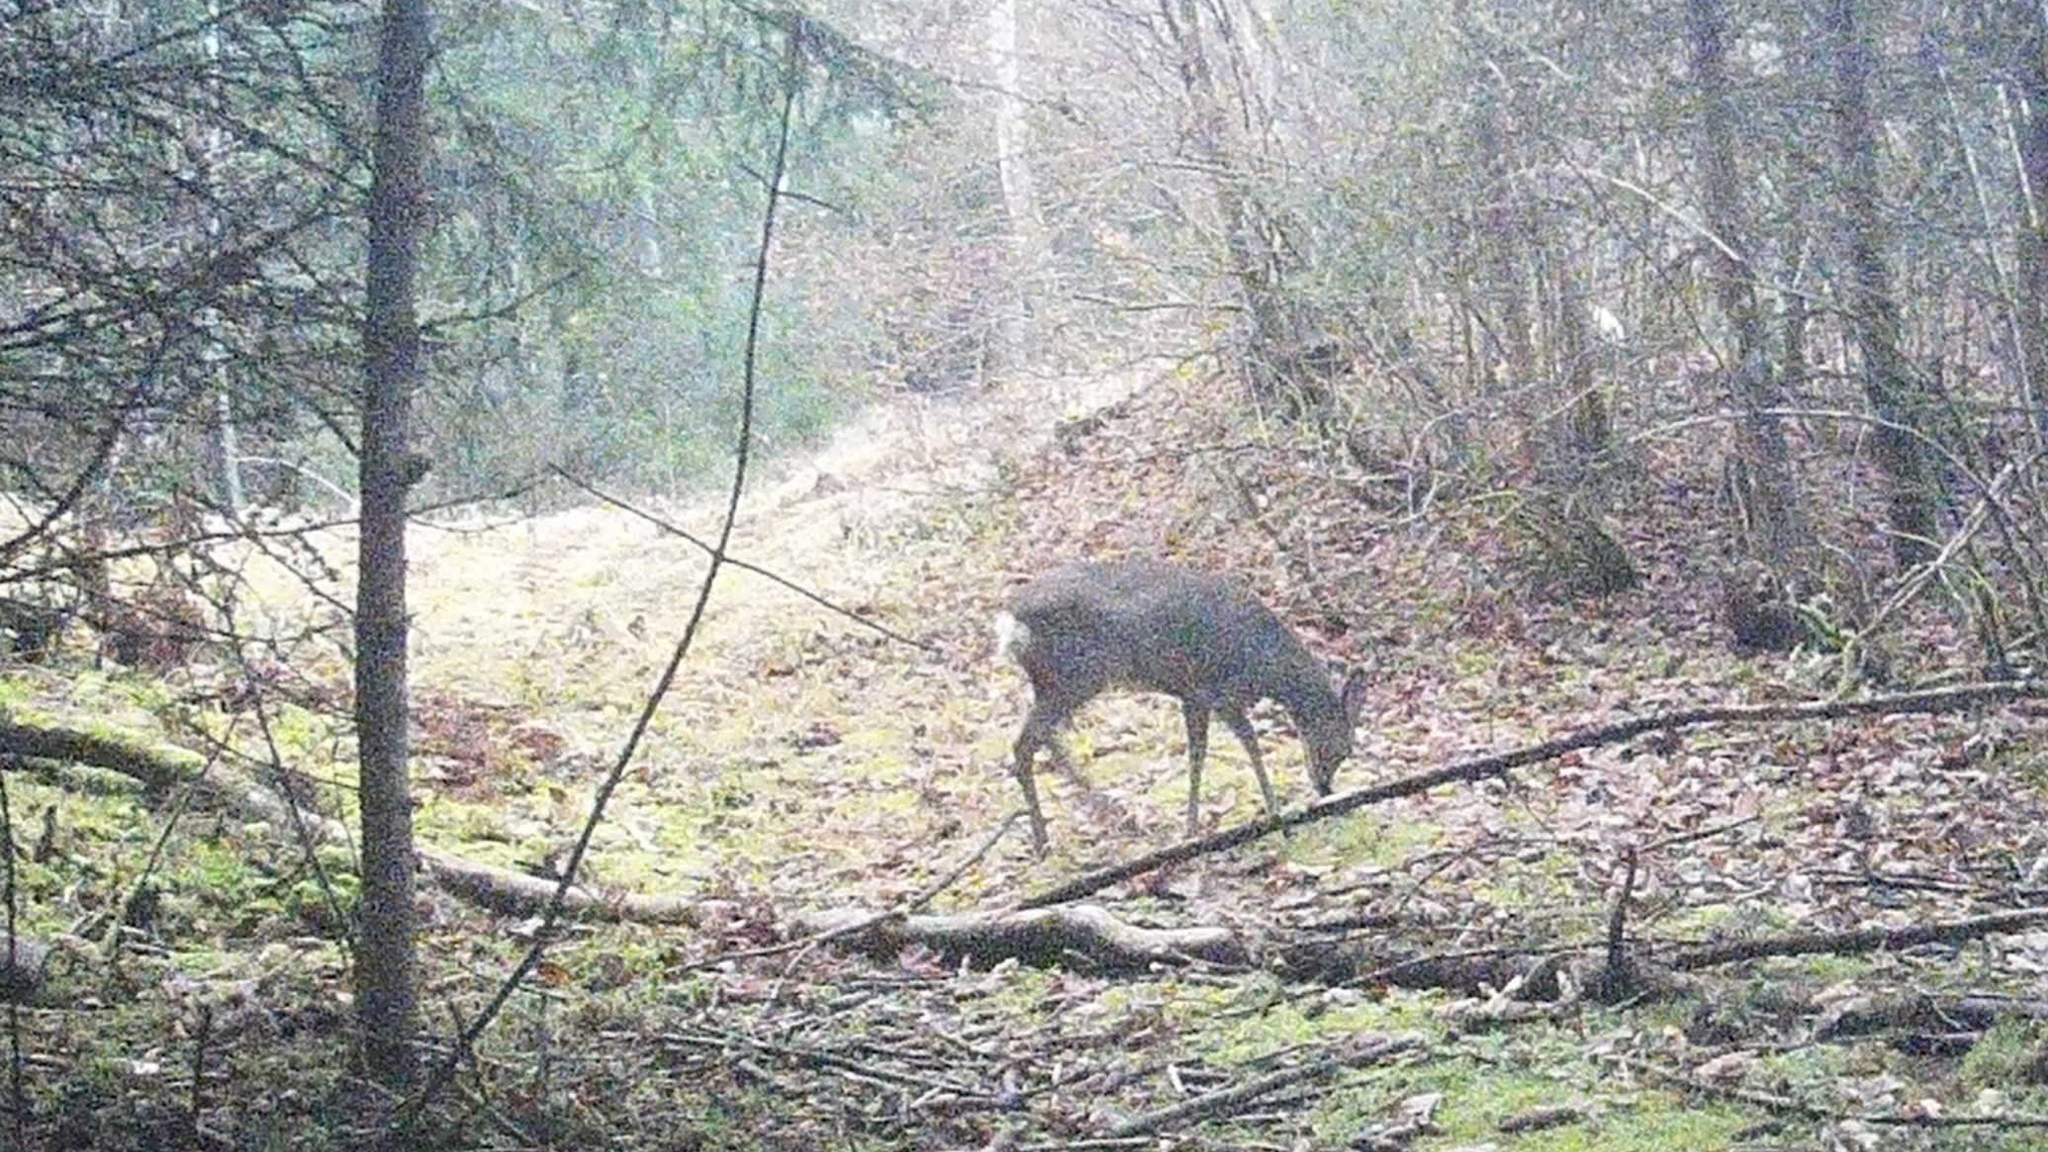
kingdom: Animalia
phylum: Chordata
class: Mammalia
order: Artiodactyla
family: Cervidae
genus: Capreolus
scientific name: Capreolus capreolus
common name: Western roe deer
